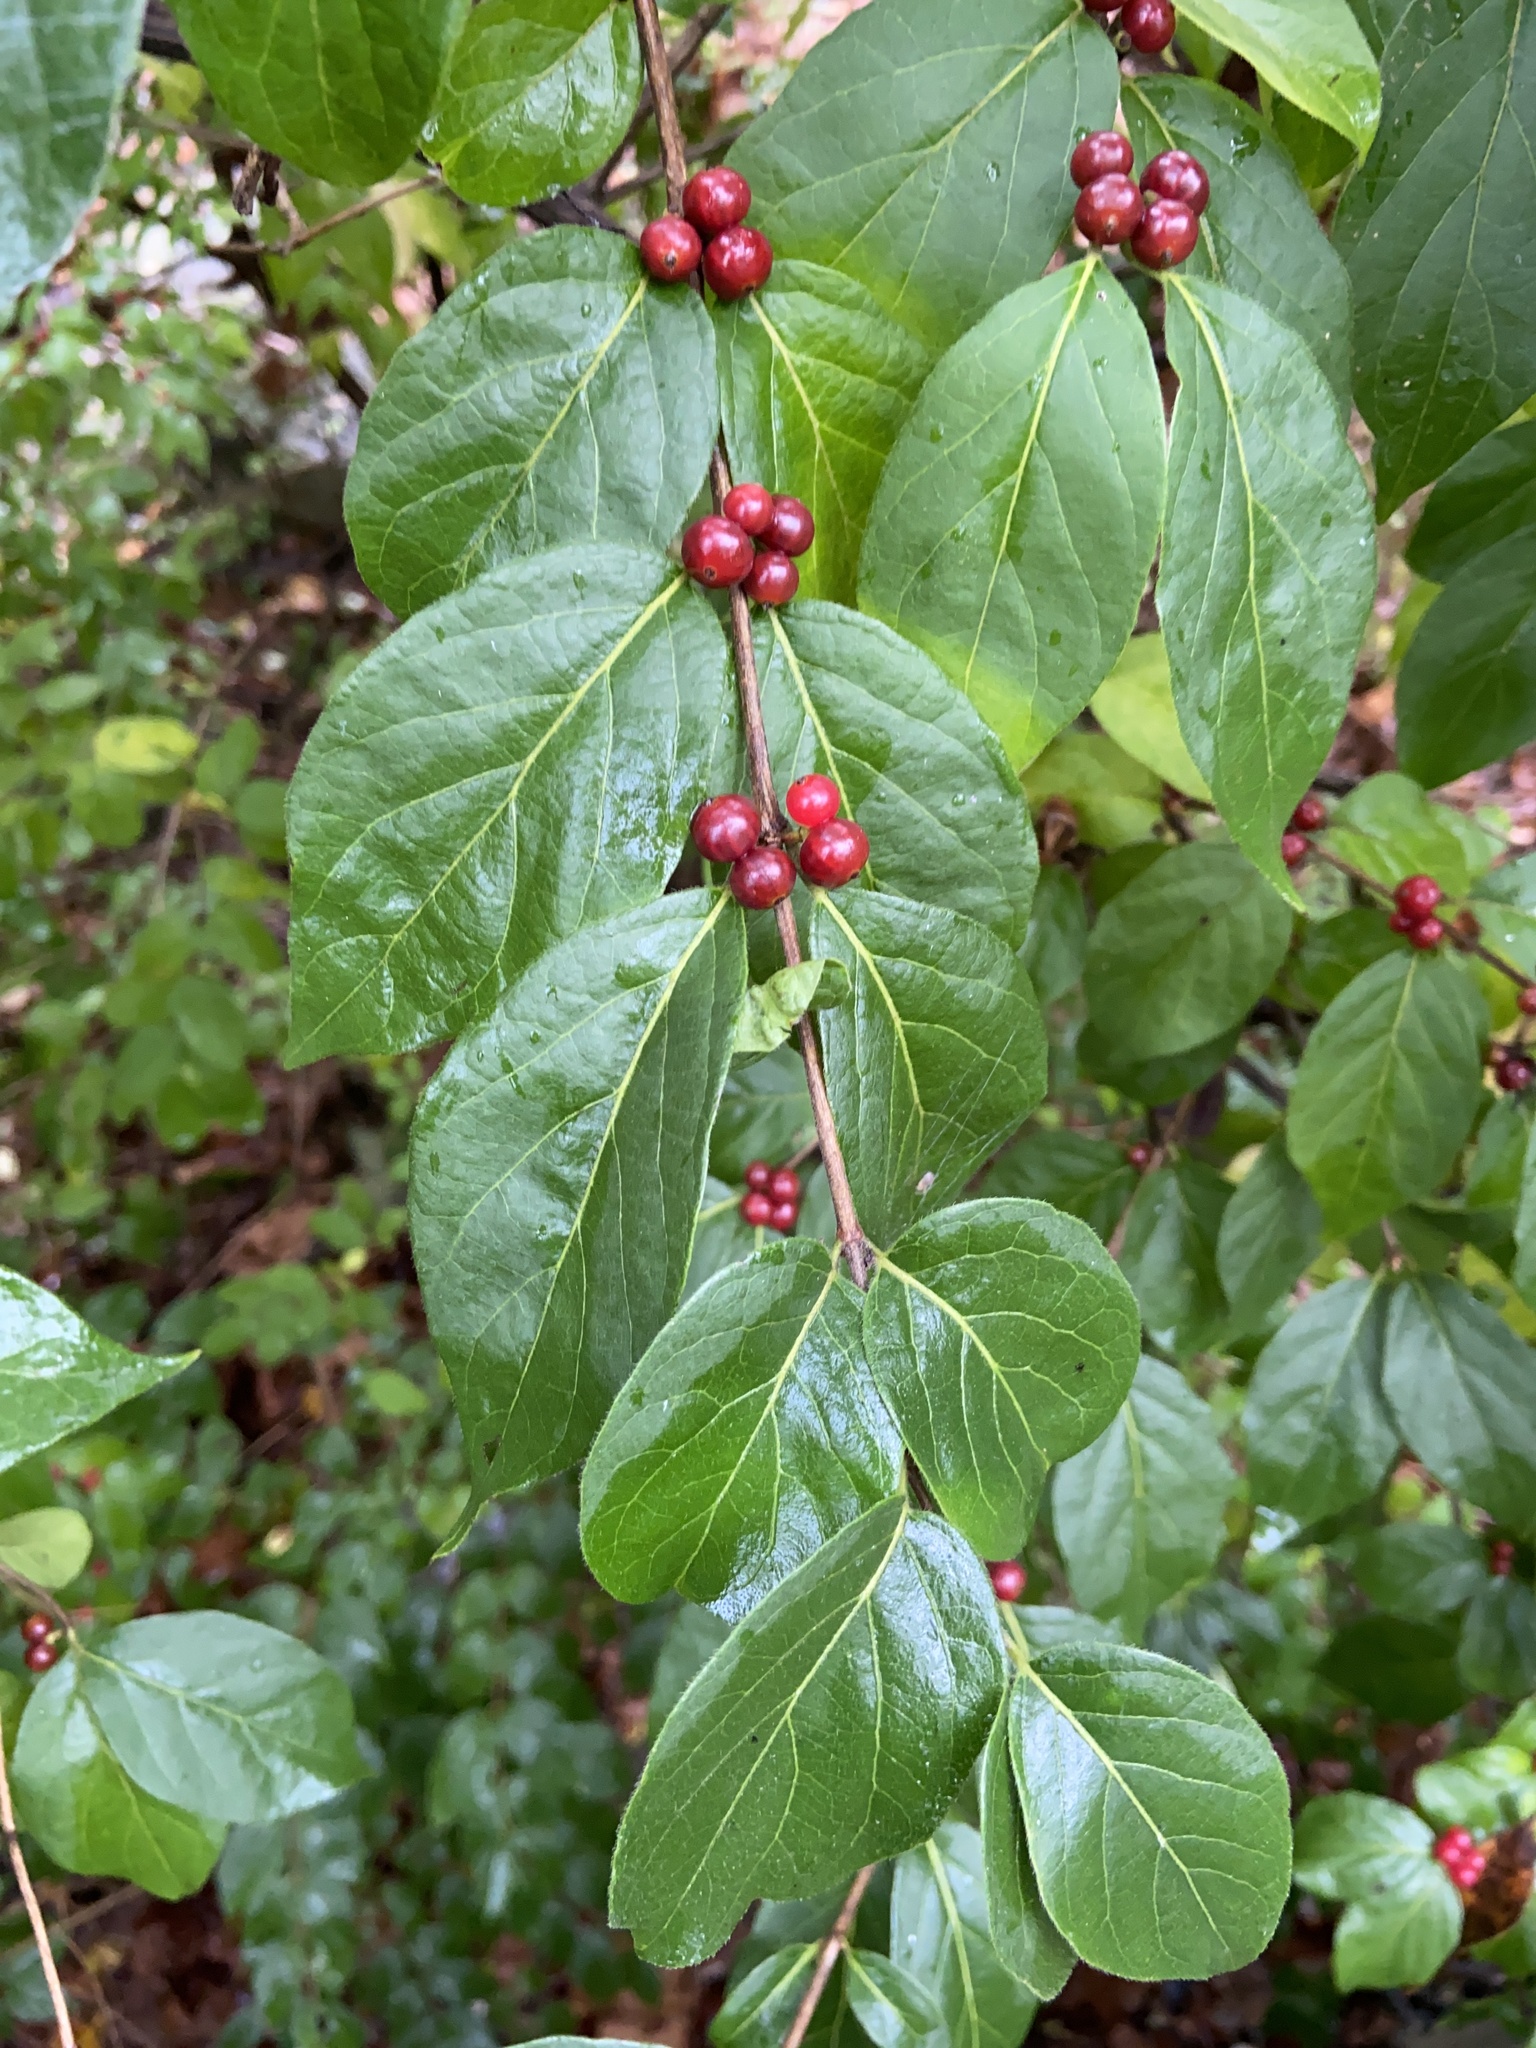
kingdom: Plantae
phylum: Tracheophyta
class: Magnoliopsida
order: Dipsacales
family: Caprifoliaceae
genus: Lonicera
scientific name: Lonicera maackii
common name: Amur honeysuckle
